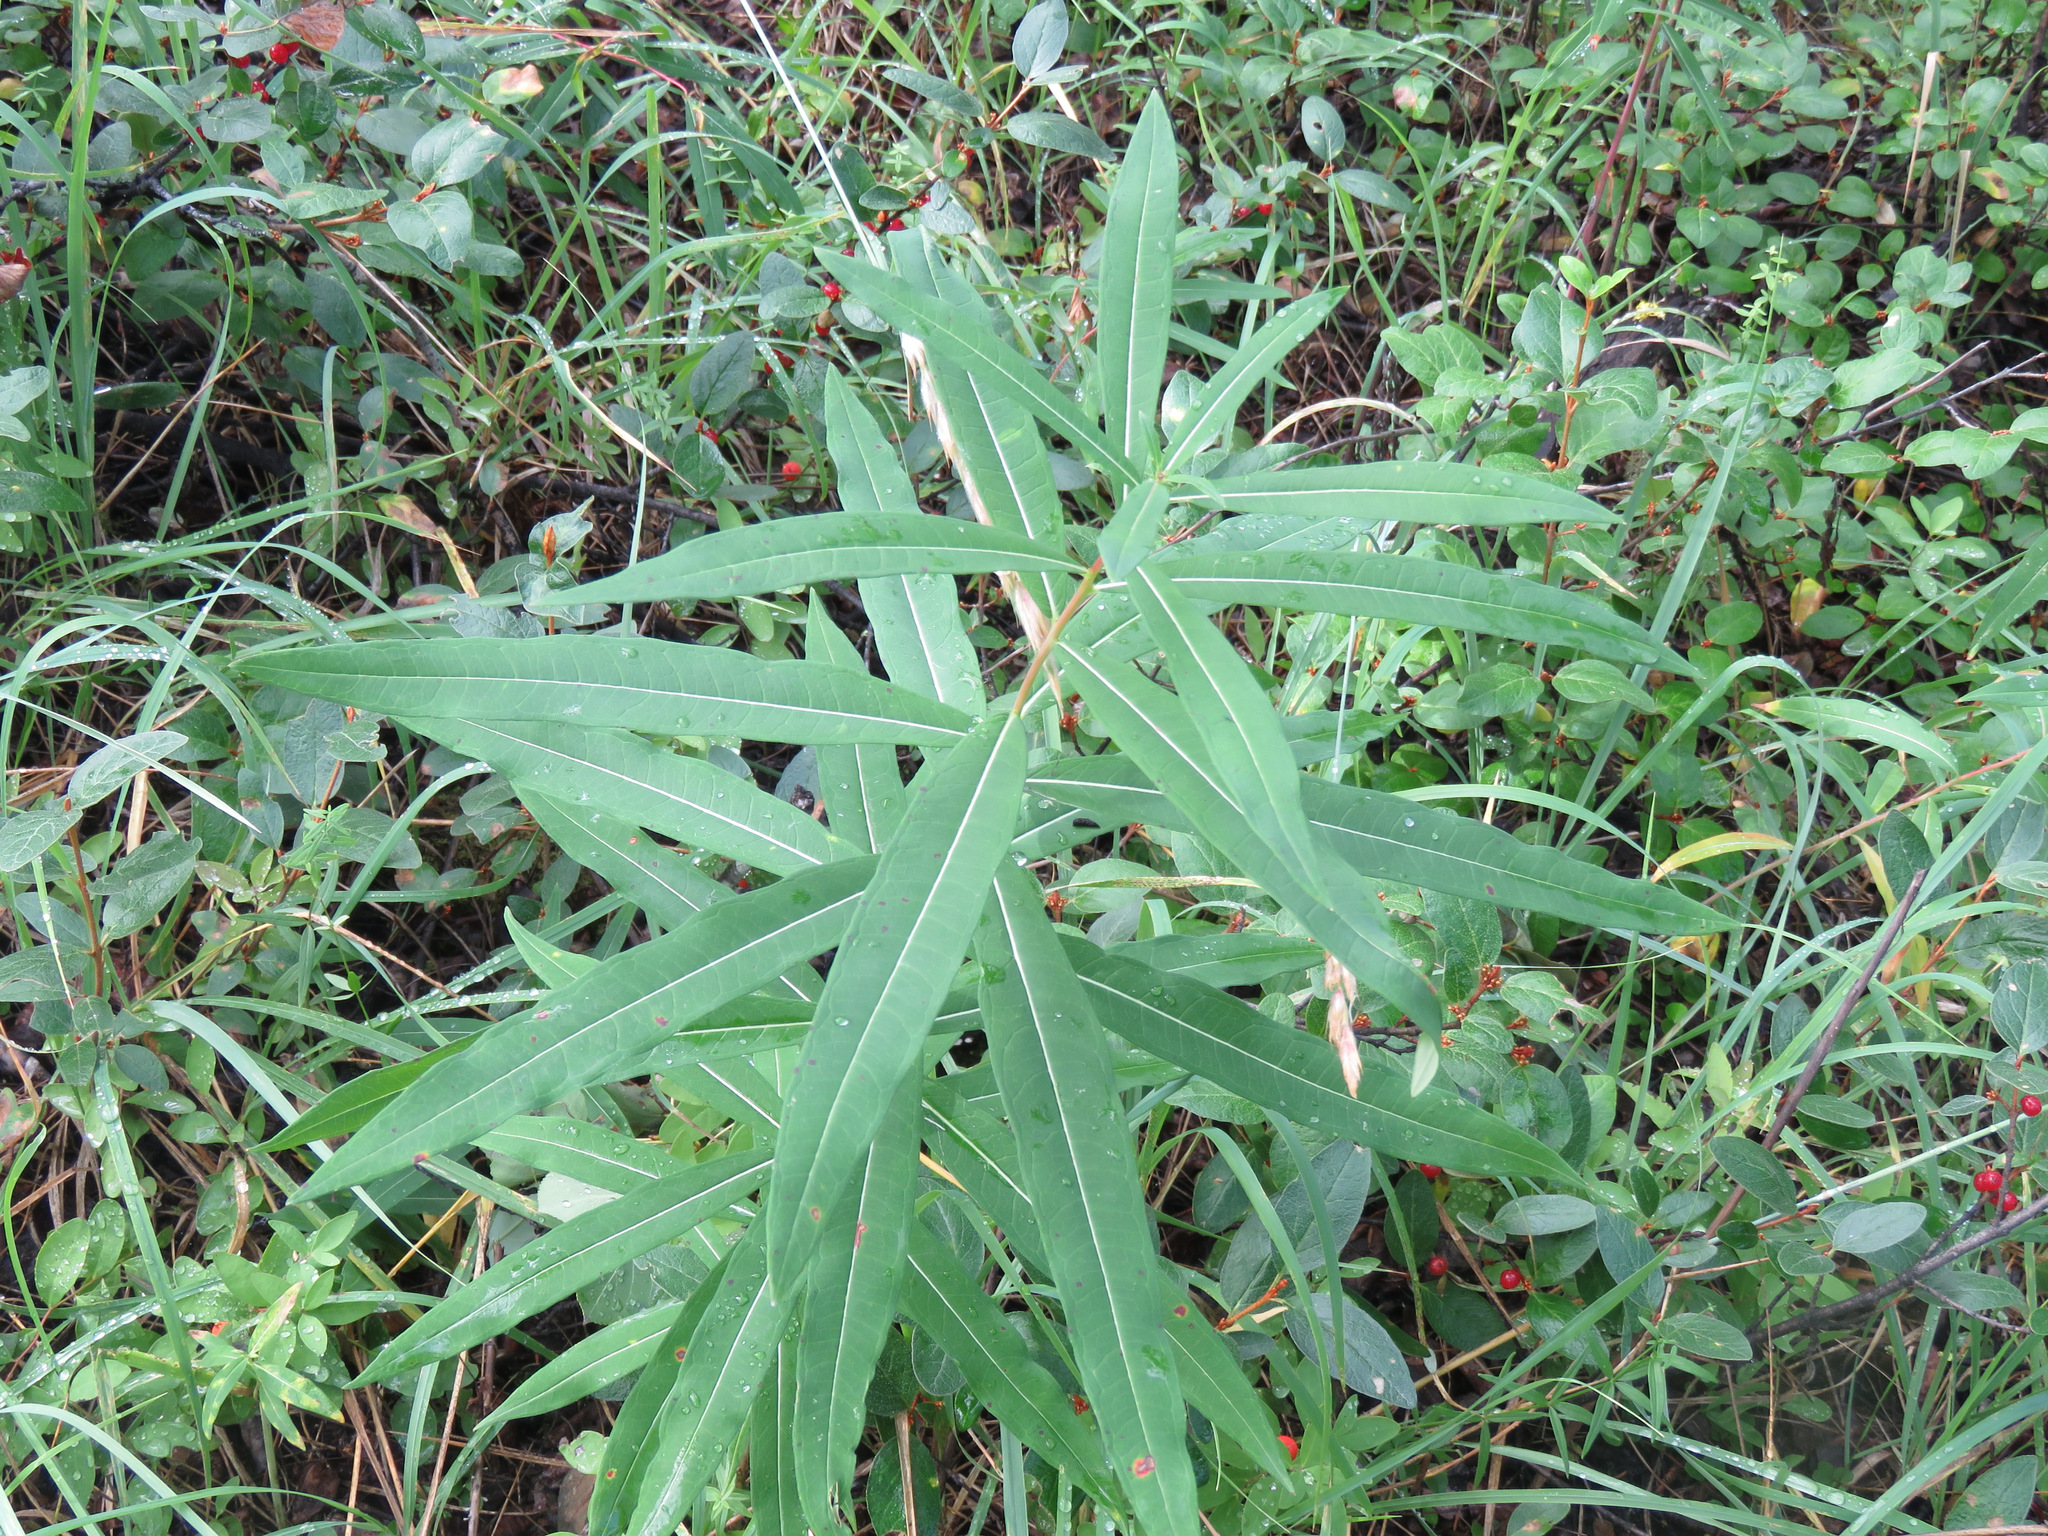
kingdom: Plantae
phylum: Tracheophyta
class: Magnoliopsida
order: Myrtales
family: Onagraceae
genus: Chamaenerion
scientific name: Chamaenerion angustifolium
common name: Fireweed
